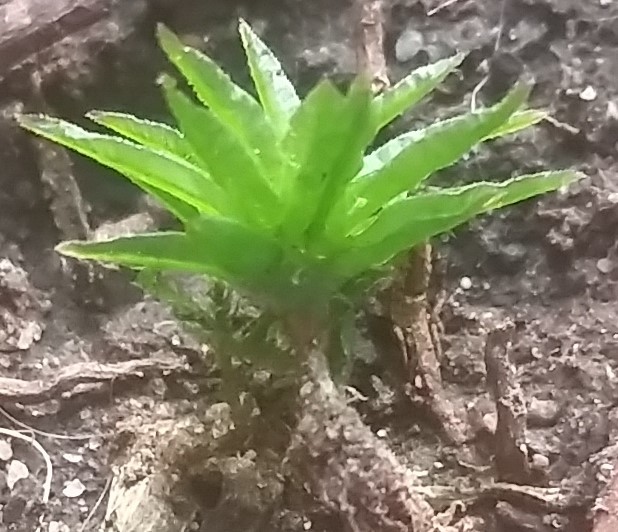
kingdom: Plantae
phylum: Bryophyta
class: Polytrichopsida
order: Polytrichales
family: Polytrichaceae
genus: Atrichum
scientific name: Atrichum selwynii
